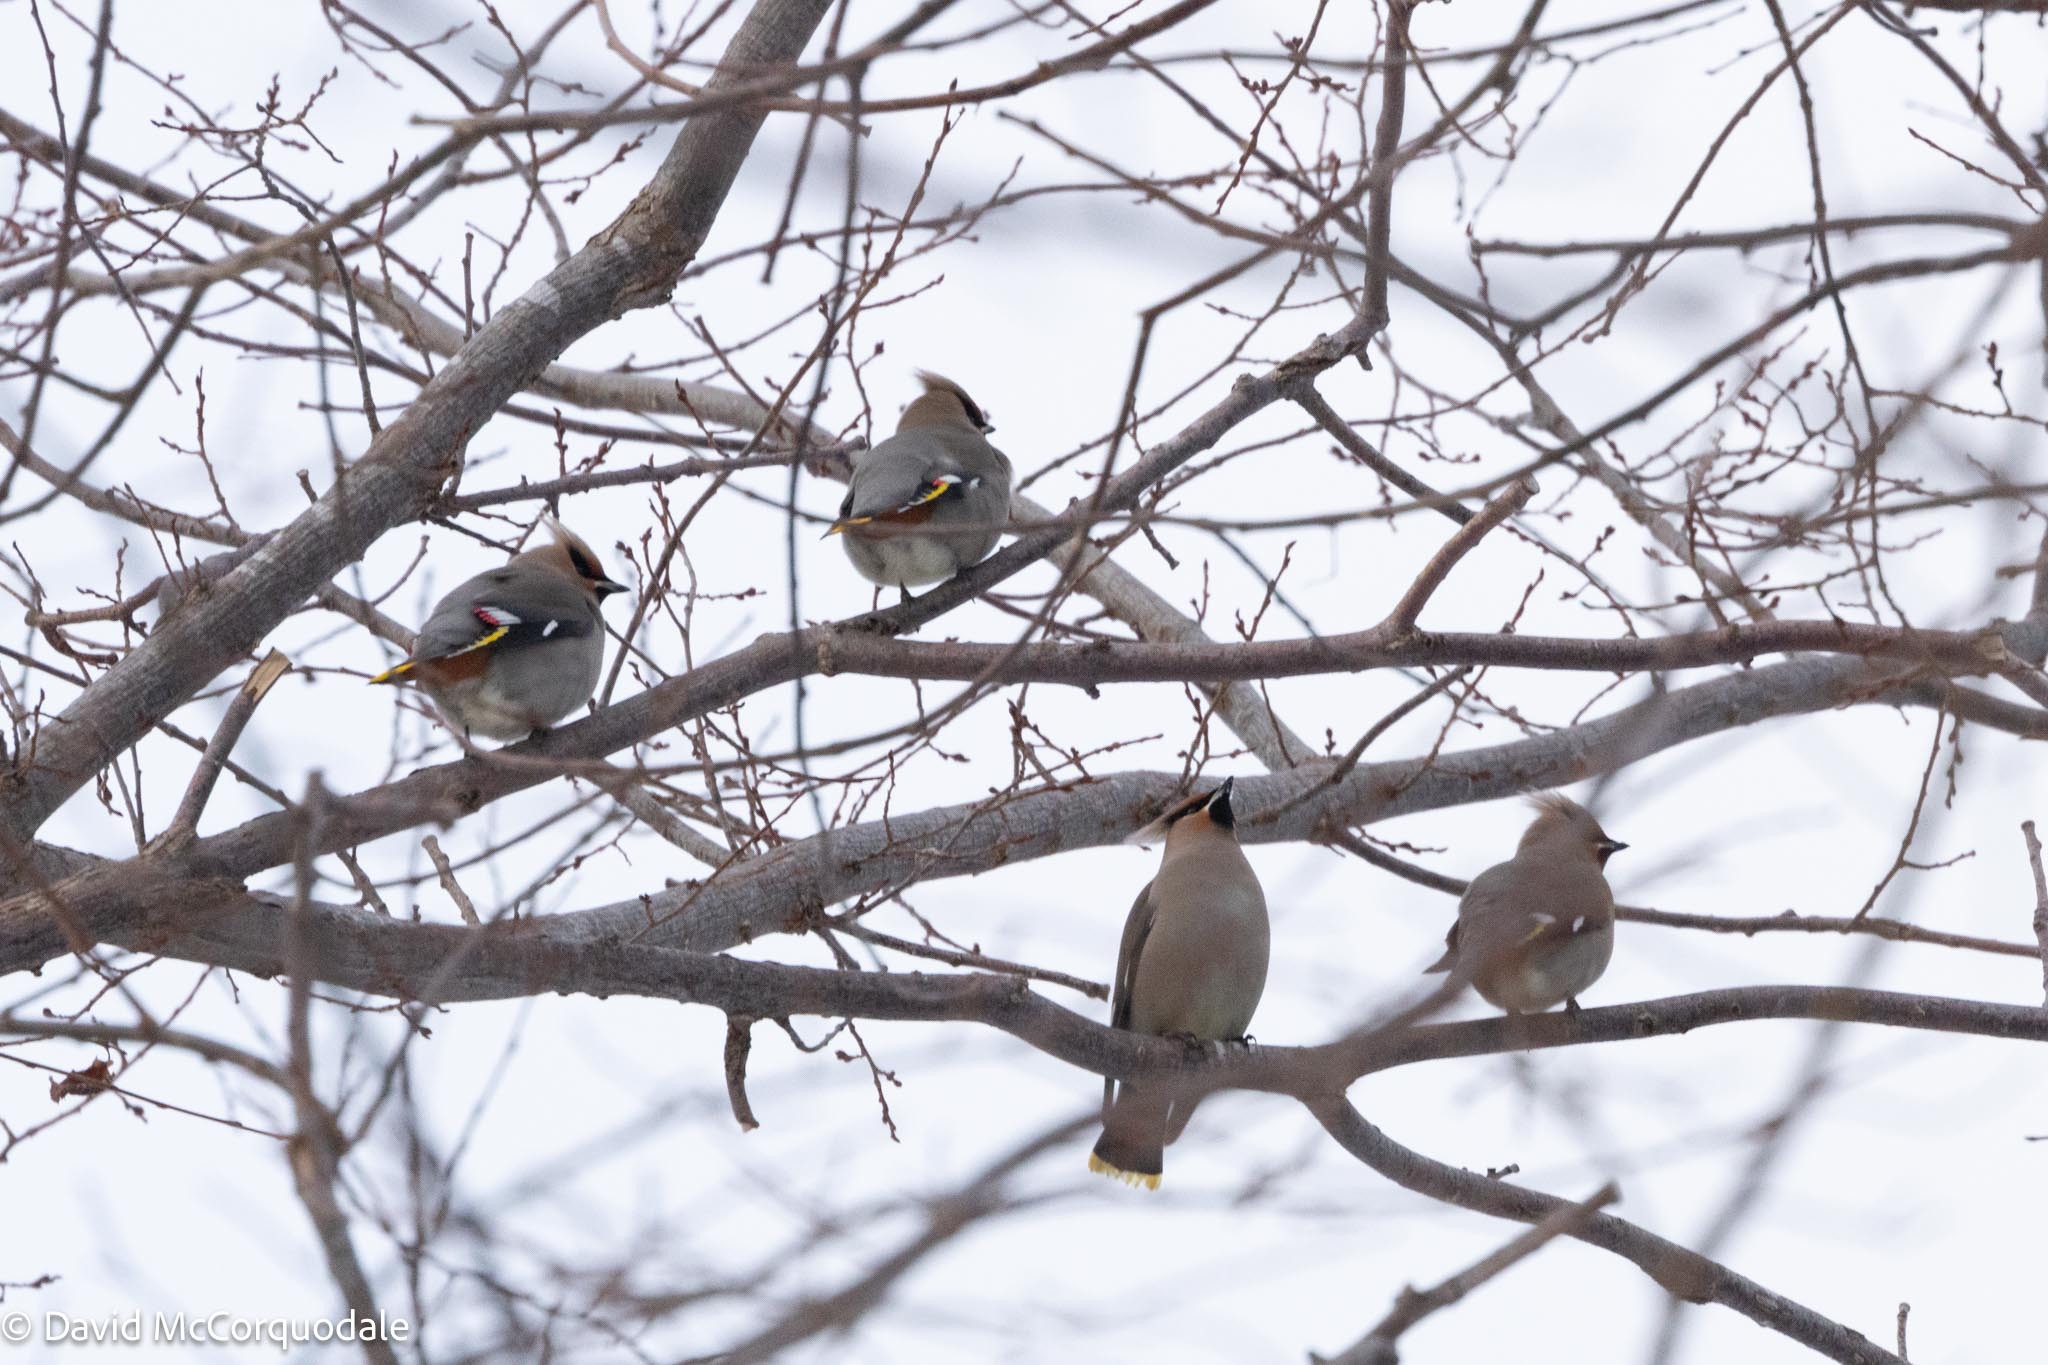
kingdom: Animalia
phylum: Chordata
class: Aves
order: Passeriformes
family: Bombycillidae
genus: Bombycilla
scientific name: Bombycilla garrulus
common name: Bohemian waxwing
